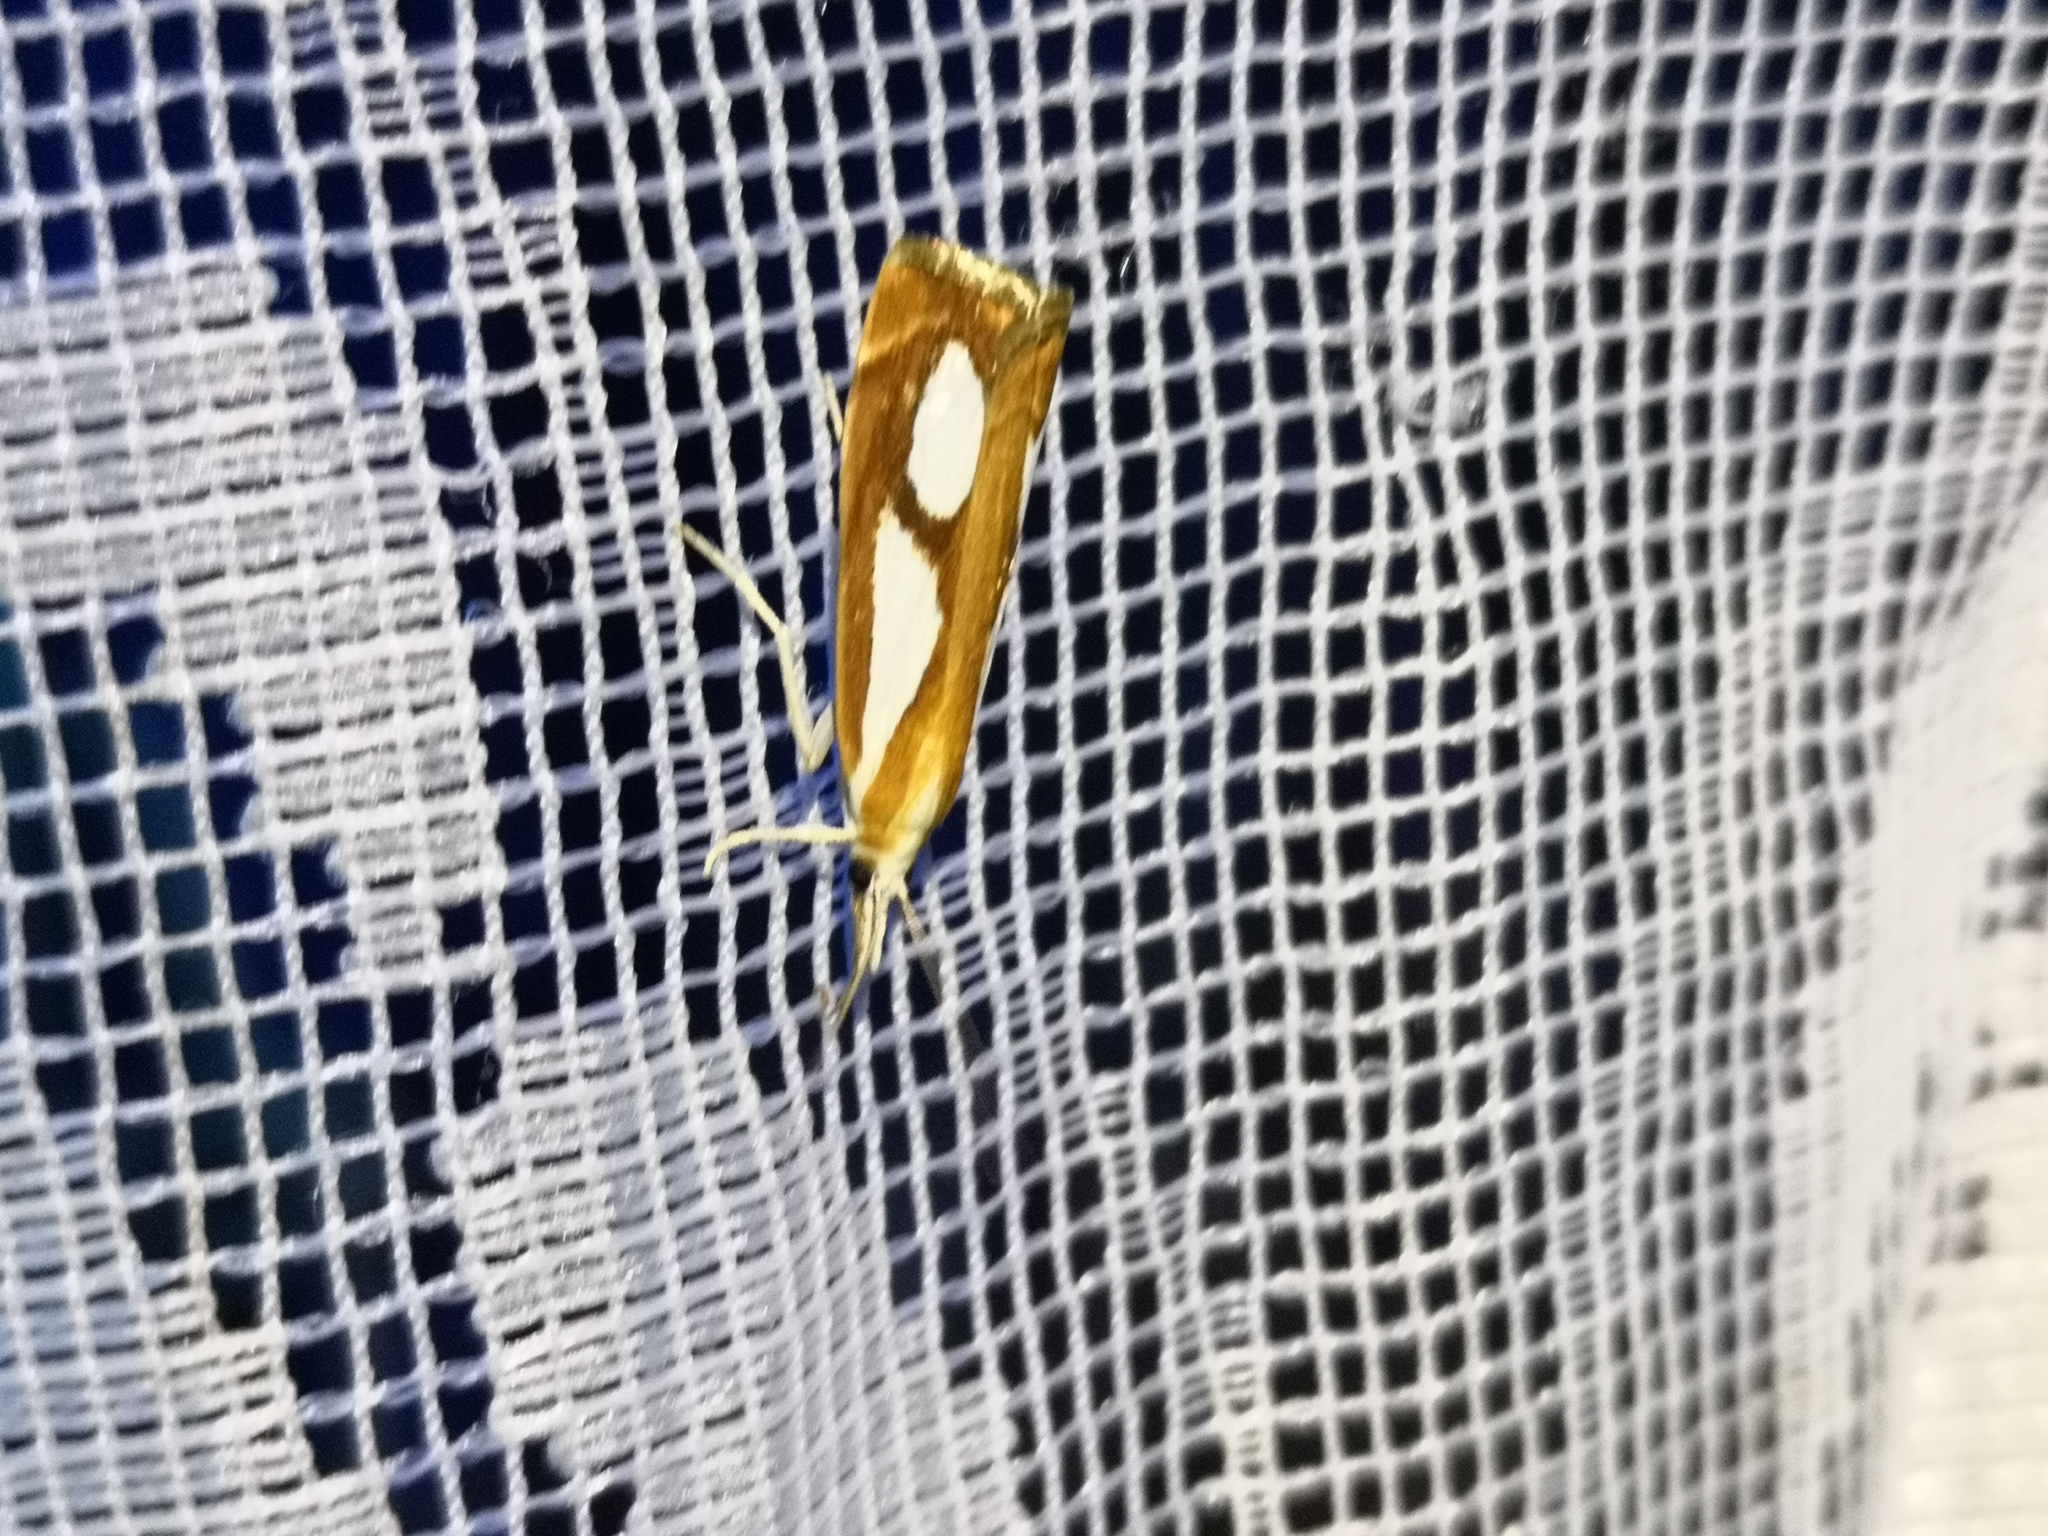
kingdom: Animalia
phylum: Arthropoda
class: Insecta
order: Lepidoptera
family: Crambidae
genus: Catoptria
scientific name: Catoptria pinella
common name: Pearl grass-veneer
